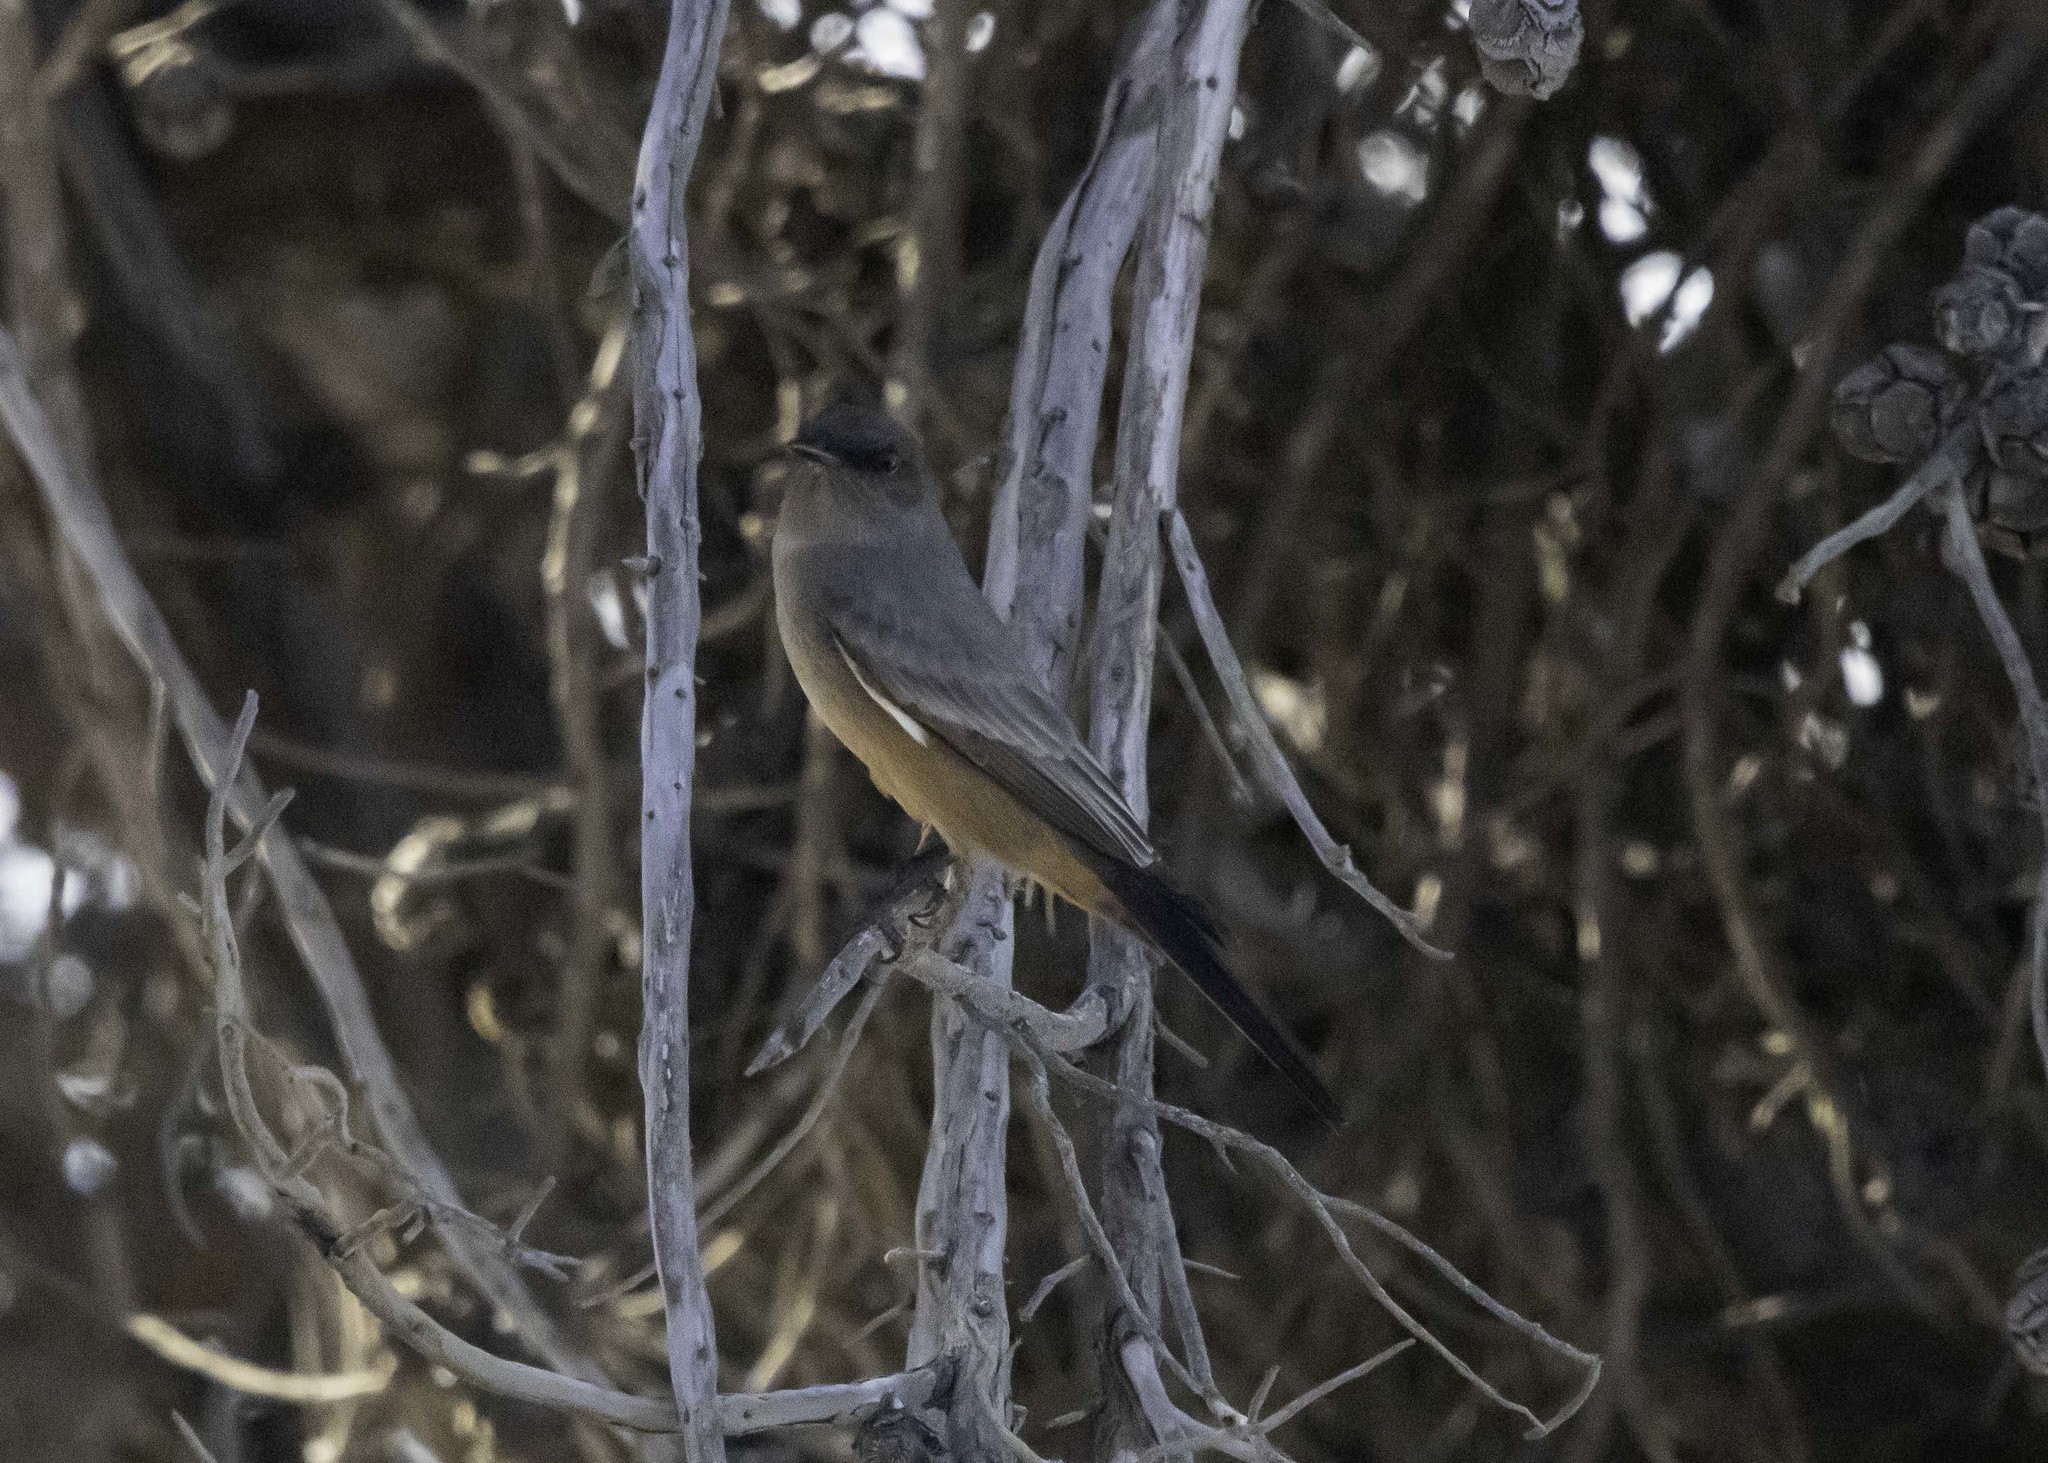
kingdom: Animalia
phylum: Chordata
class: Aves
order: Passeriformes
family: Tyrannidae
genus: Sayornis
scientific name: Sayornis saya
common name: Say's phoebe
